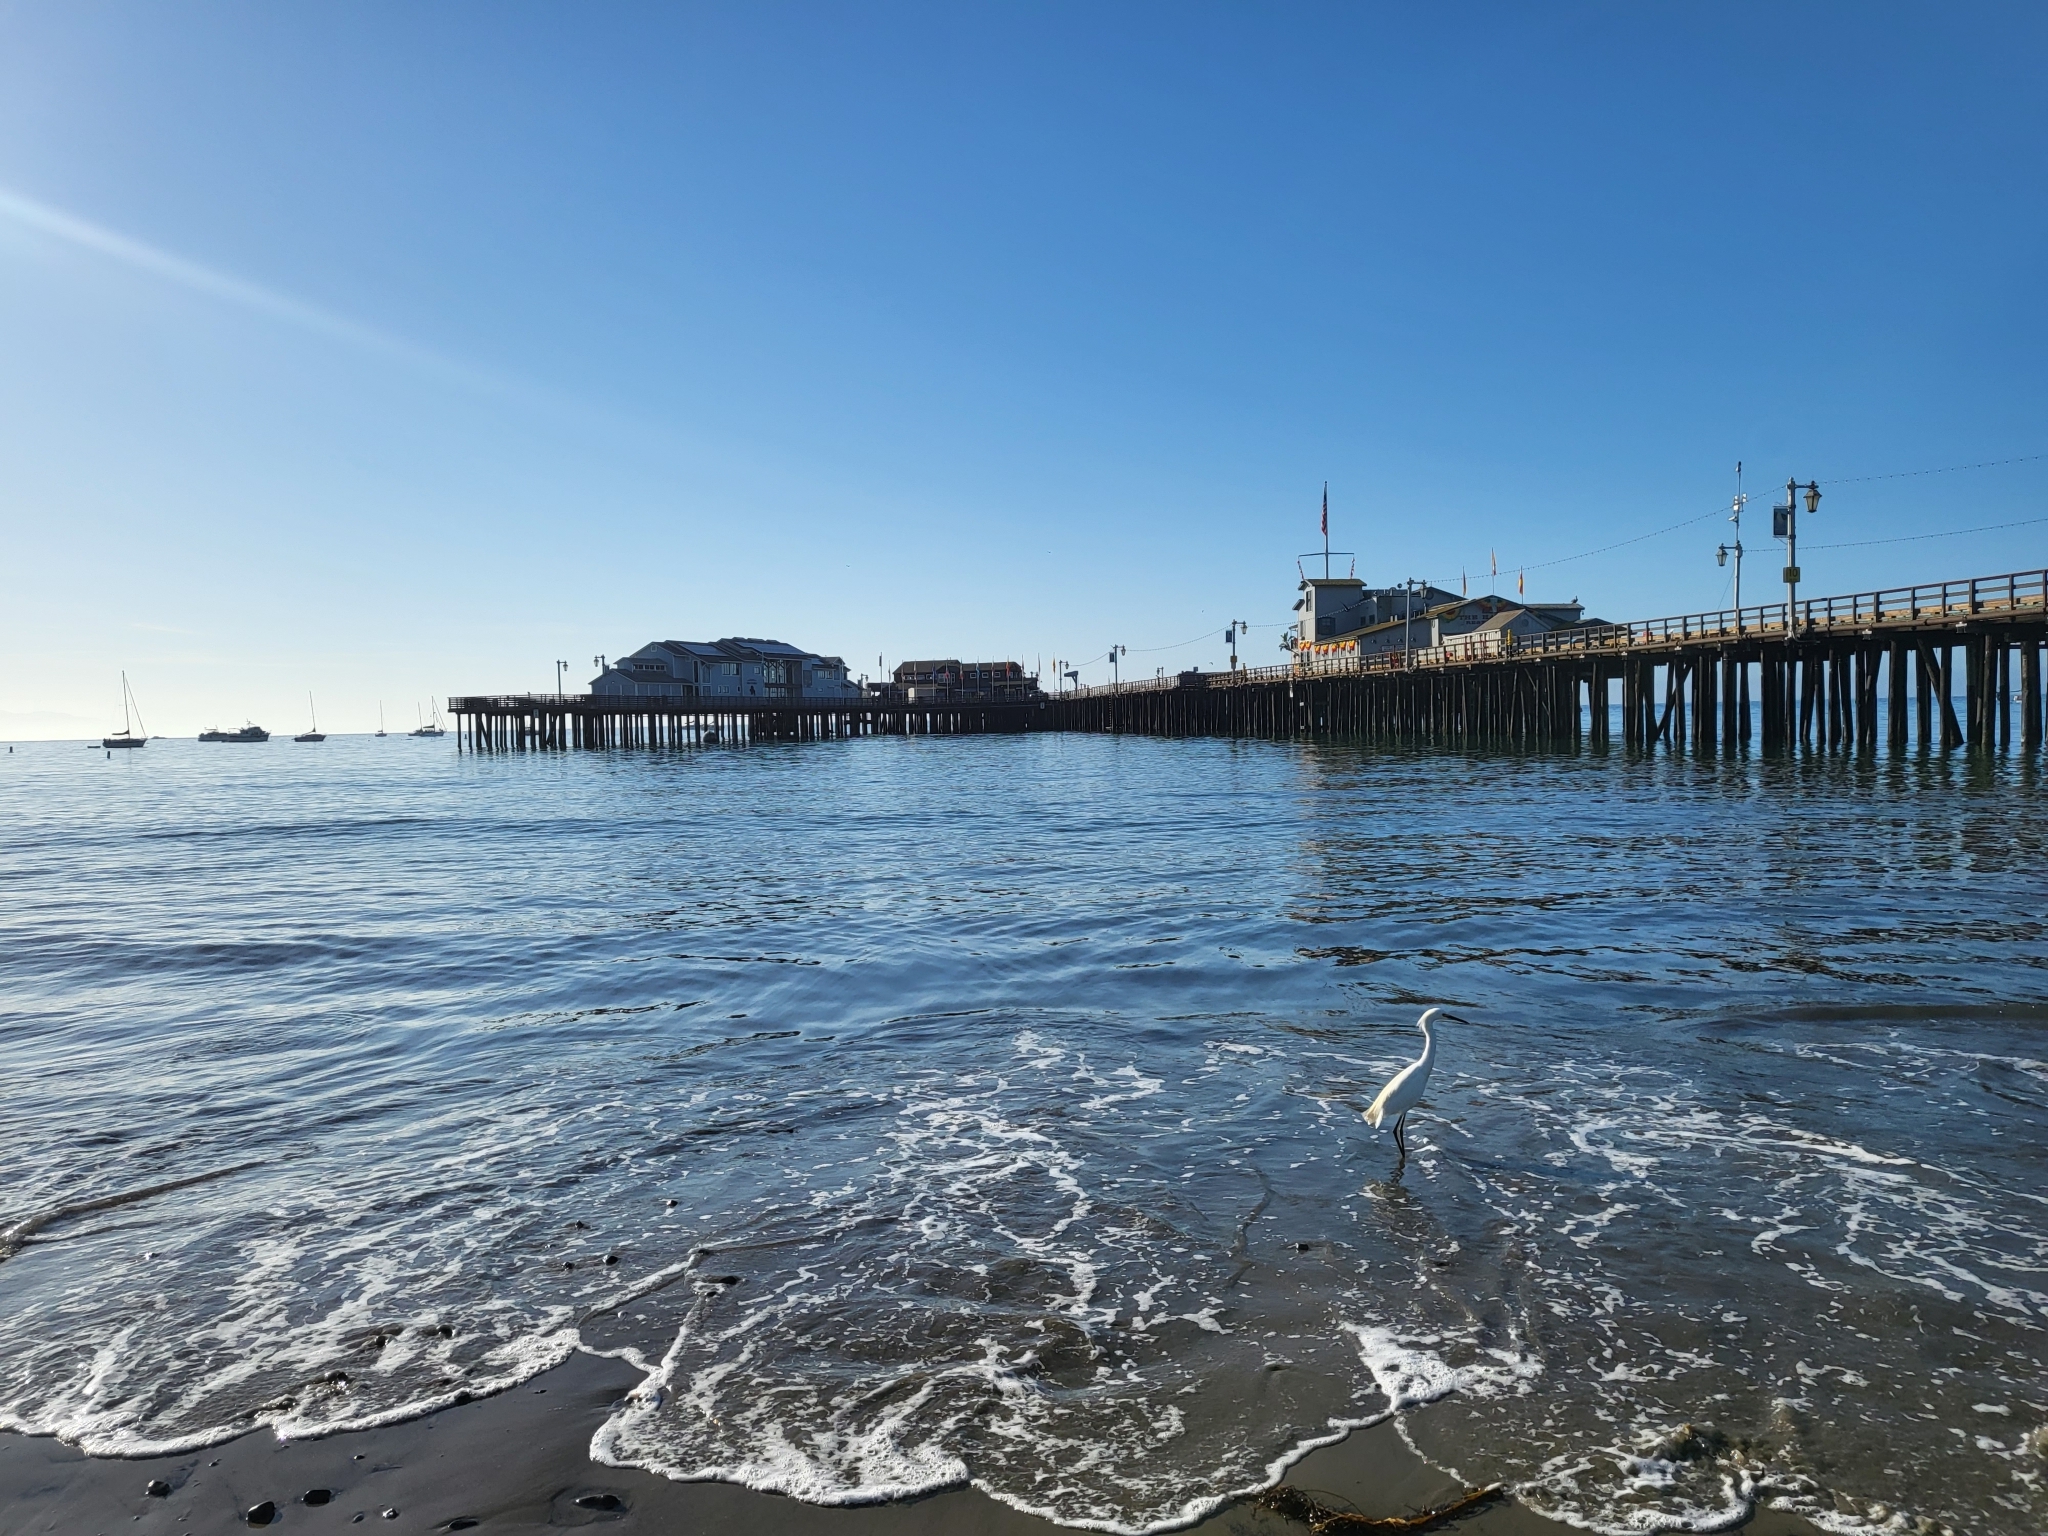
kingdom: Animalia
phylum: Chordata
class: Aves
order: Pelecaniformes
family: Ardeidae
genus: Egretta
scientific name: Egretta thula
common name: Snowy egret
